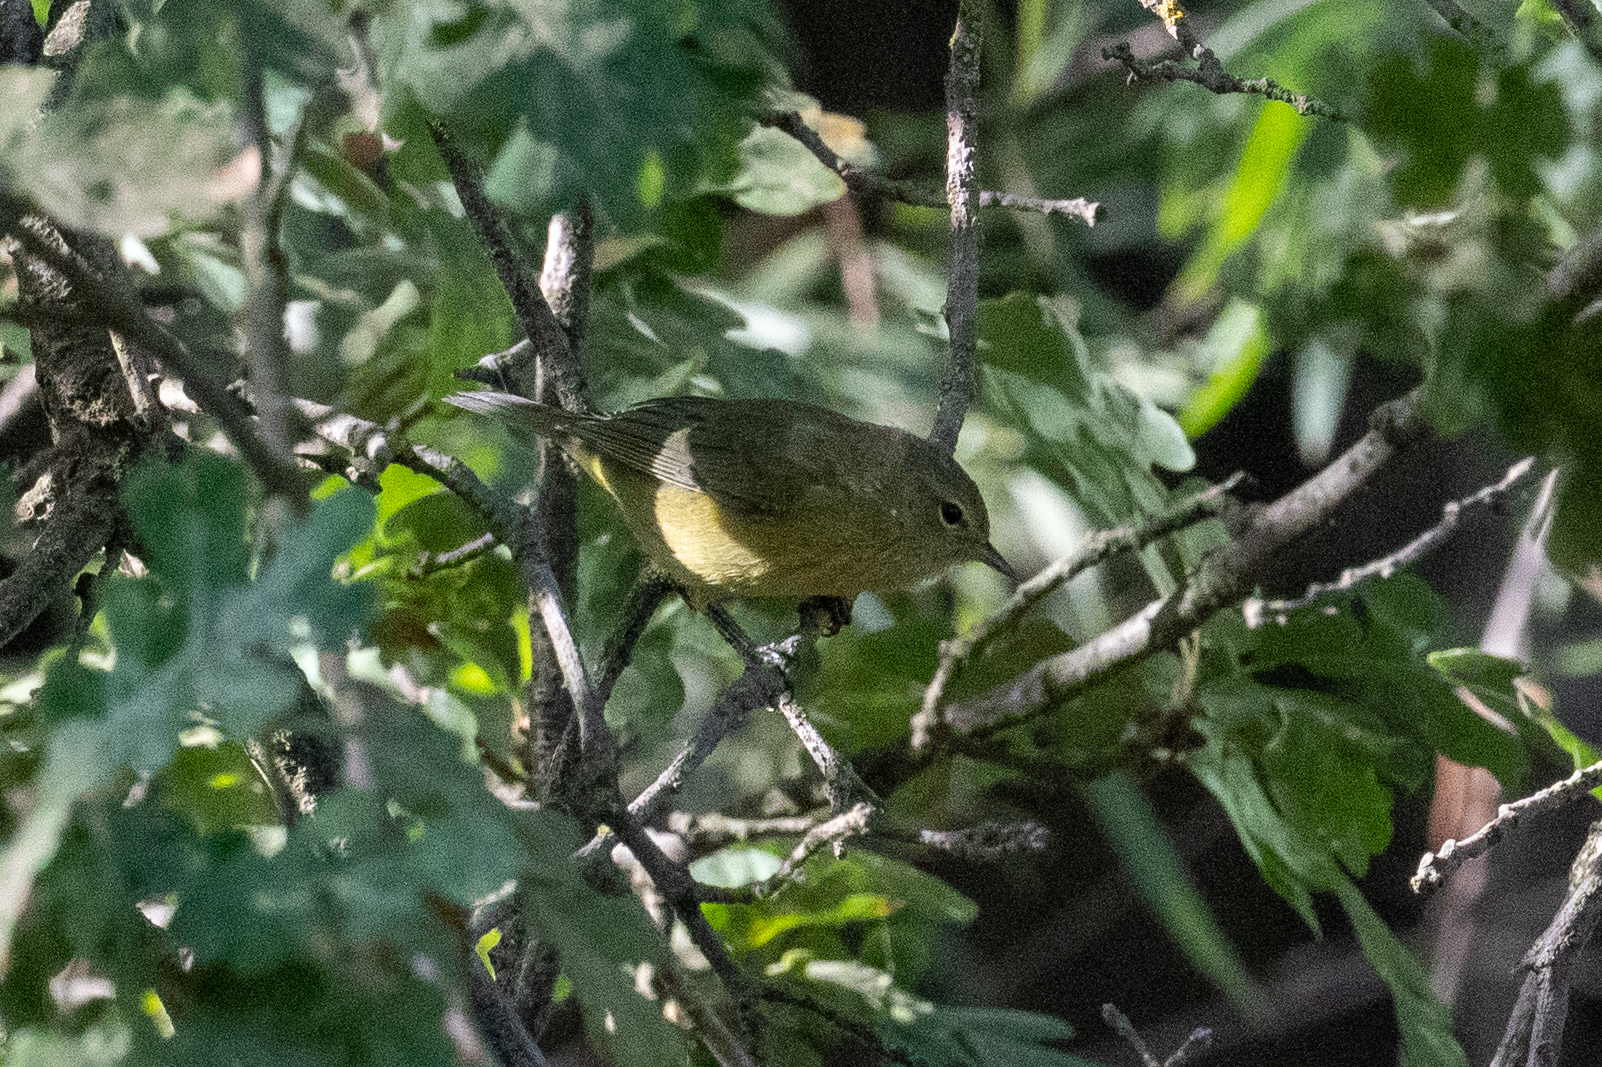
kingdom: Animalia
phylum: Chordata
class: Aves
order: Passeriformes
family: Parulidae
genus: Leiothlypis
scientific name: Leiothlypis celata
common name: Orange-crowned warbler
